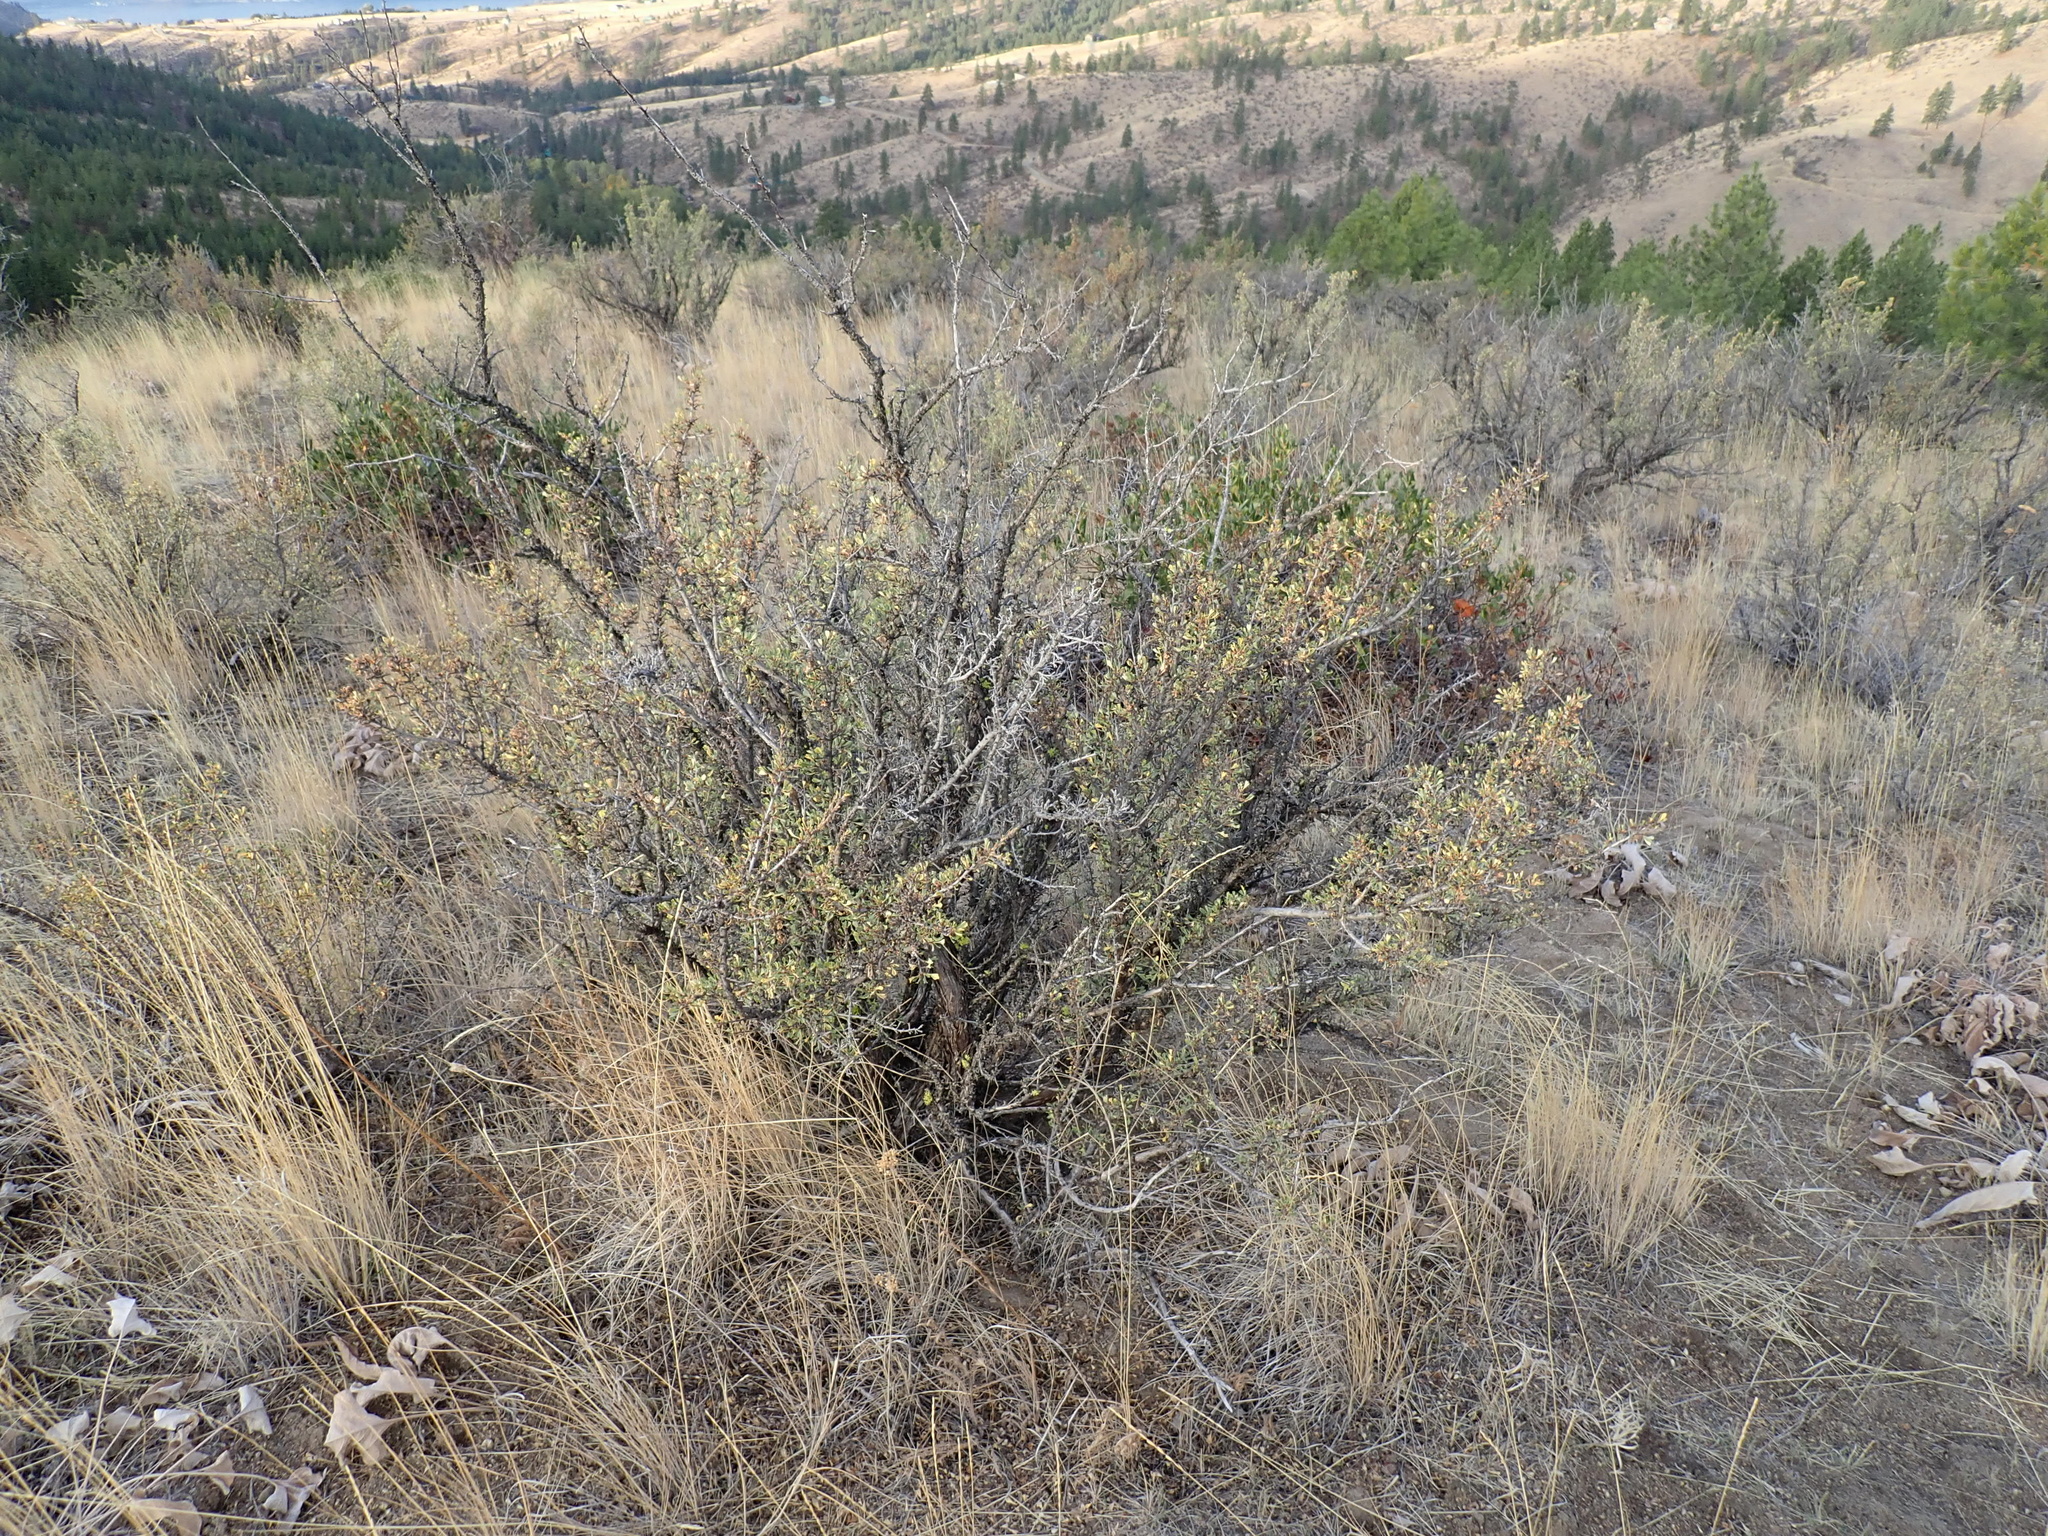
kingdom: Plantae
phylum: Tracheophyta
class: Magnoliopsida
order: Rosales
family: Rosaceae
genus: Purshia
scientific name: Purshia tridentata
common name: Antelope bitterbrush
